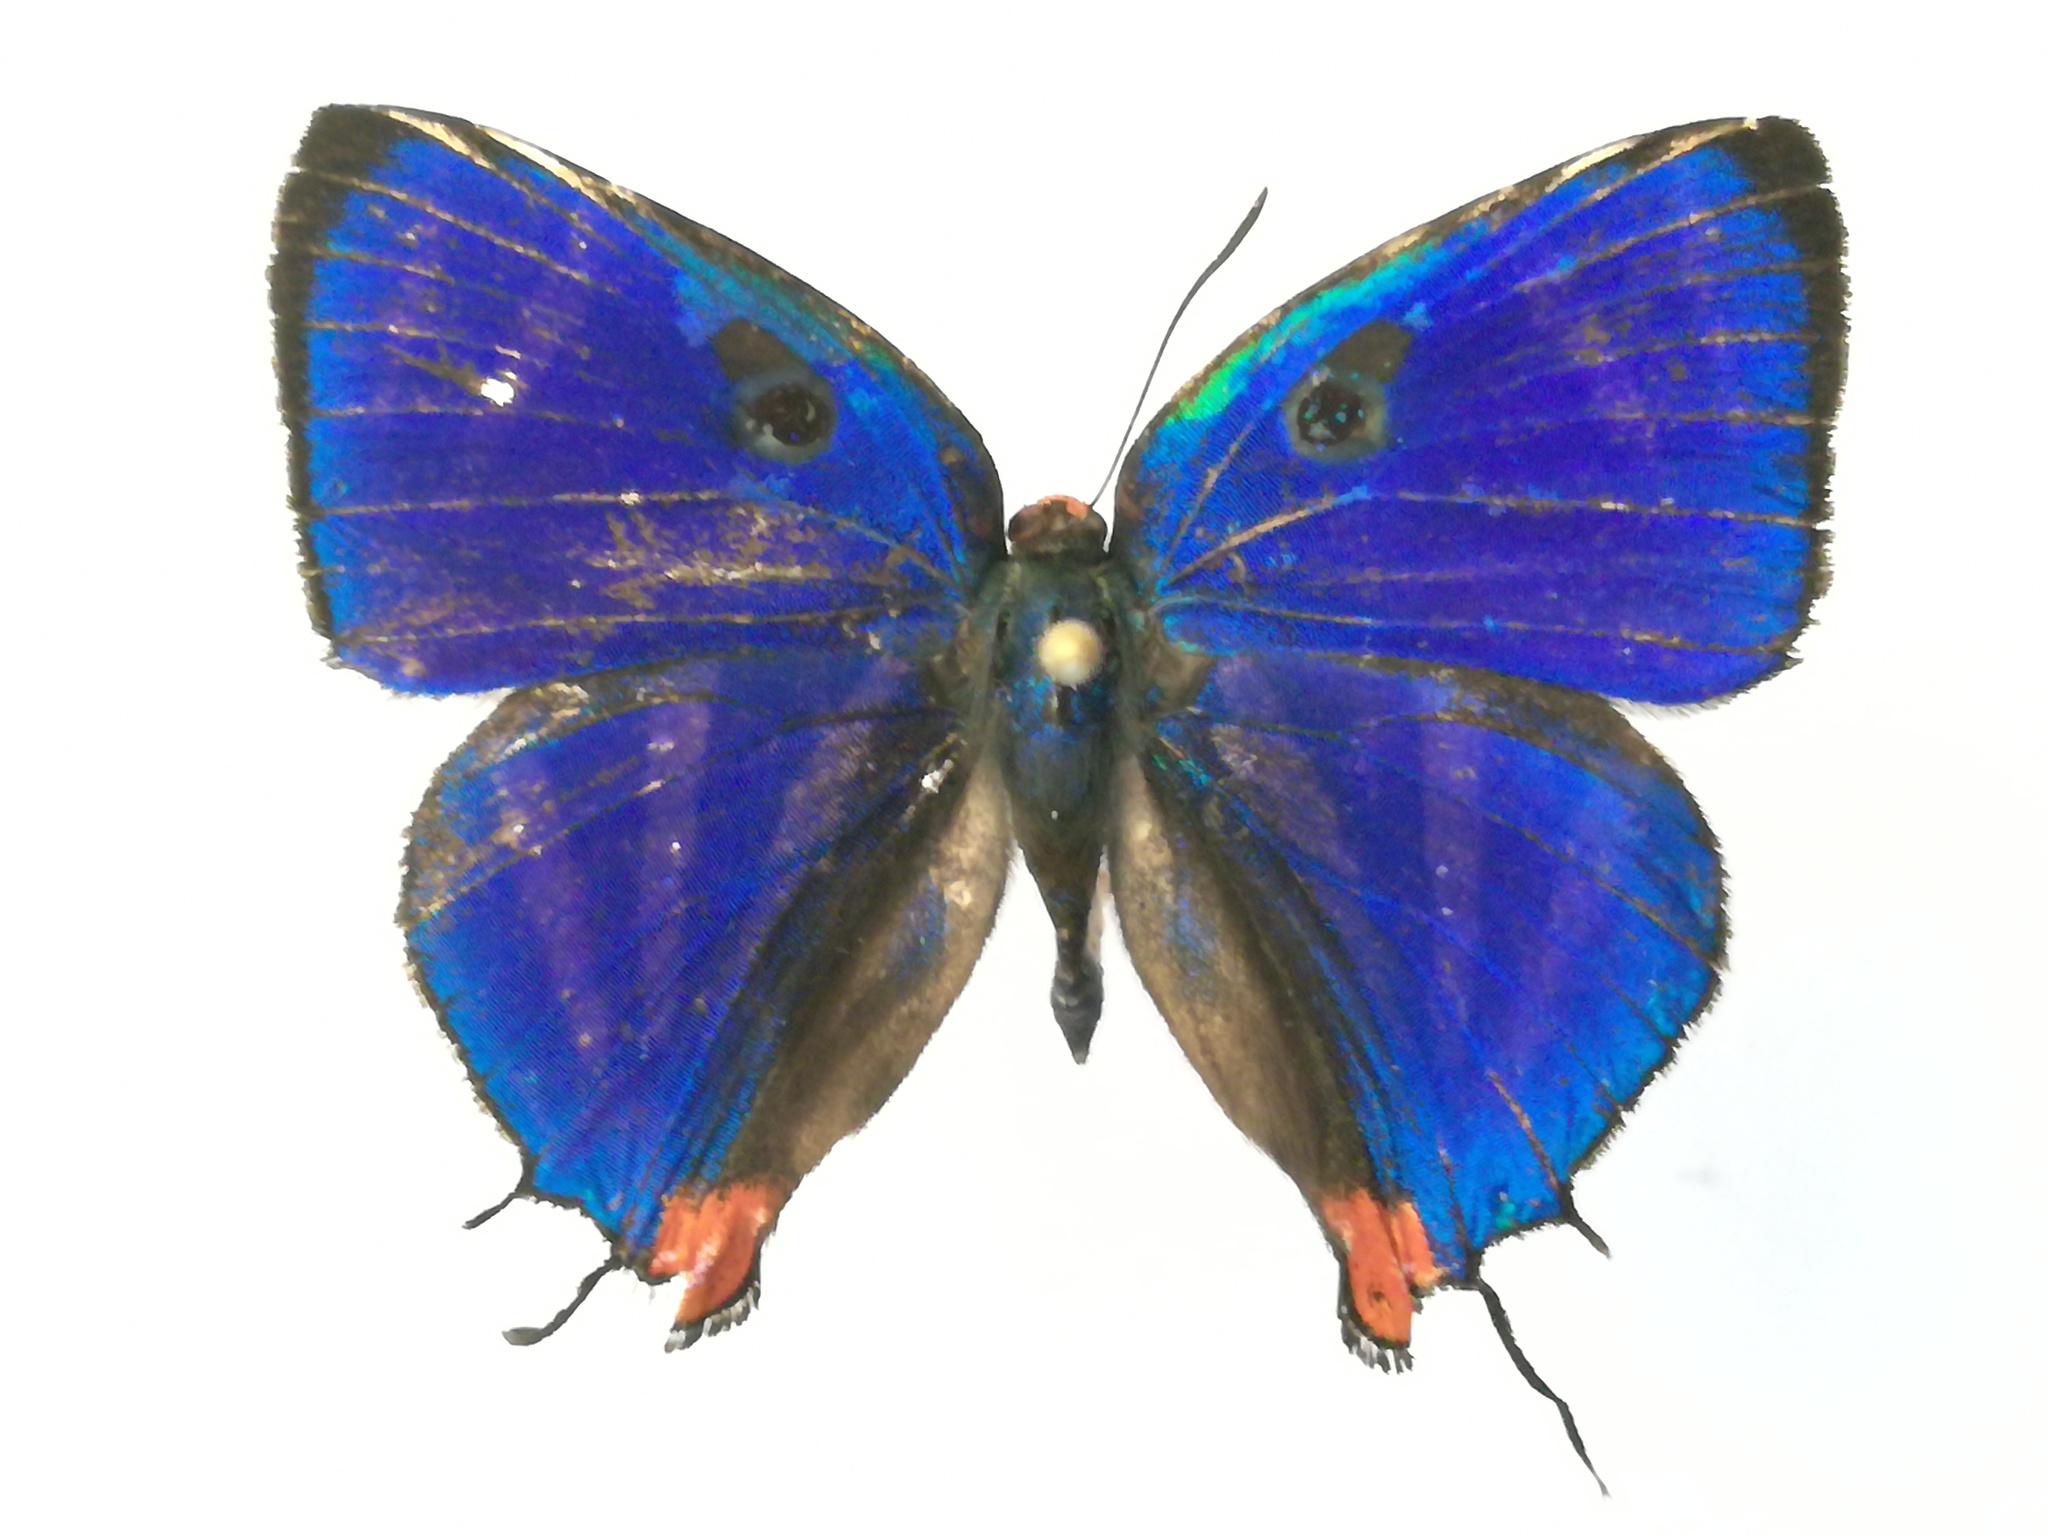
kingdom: Animalia
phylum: Arthropoda
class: Insecta
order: Lepidoptera
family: Lycaenidae
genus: Thecla
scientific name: Thecla bathildis
